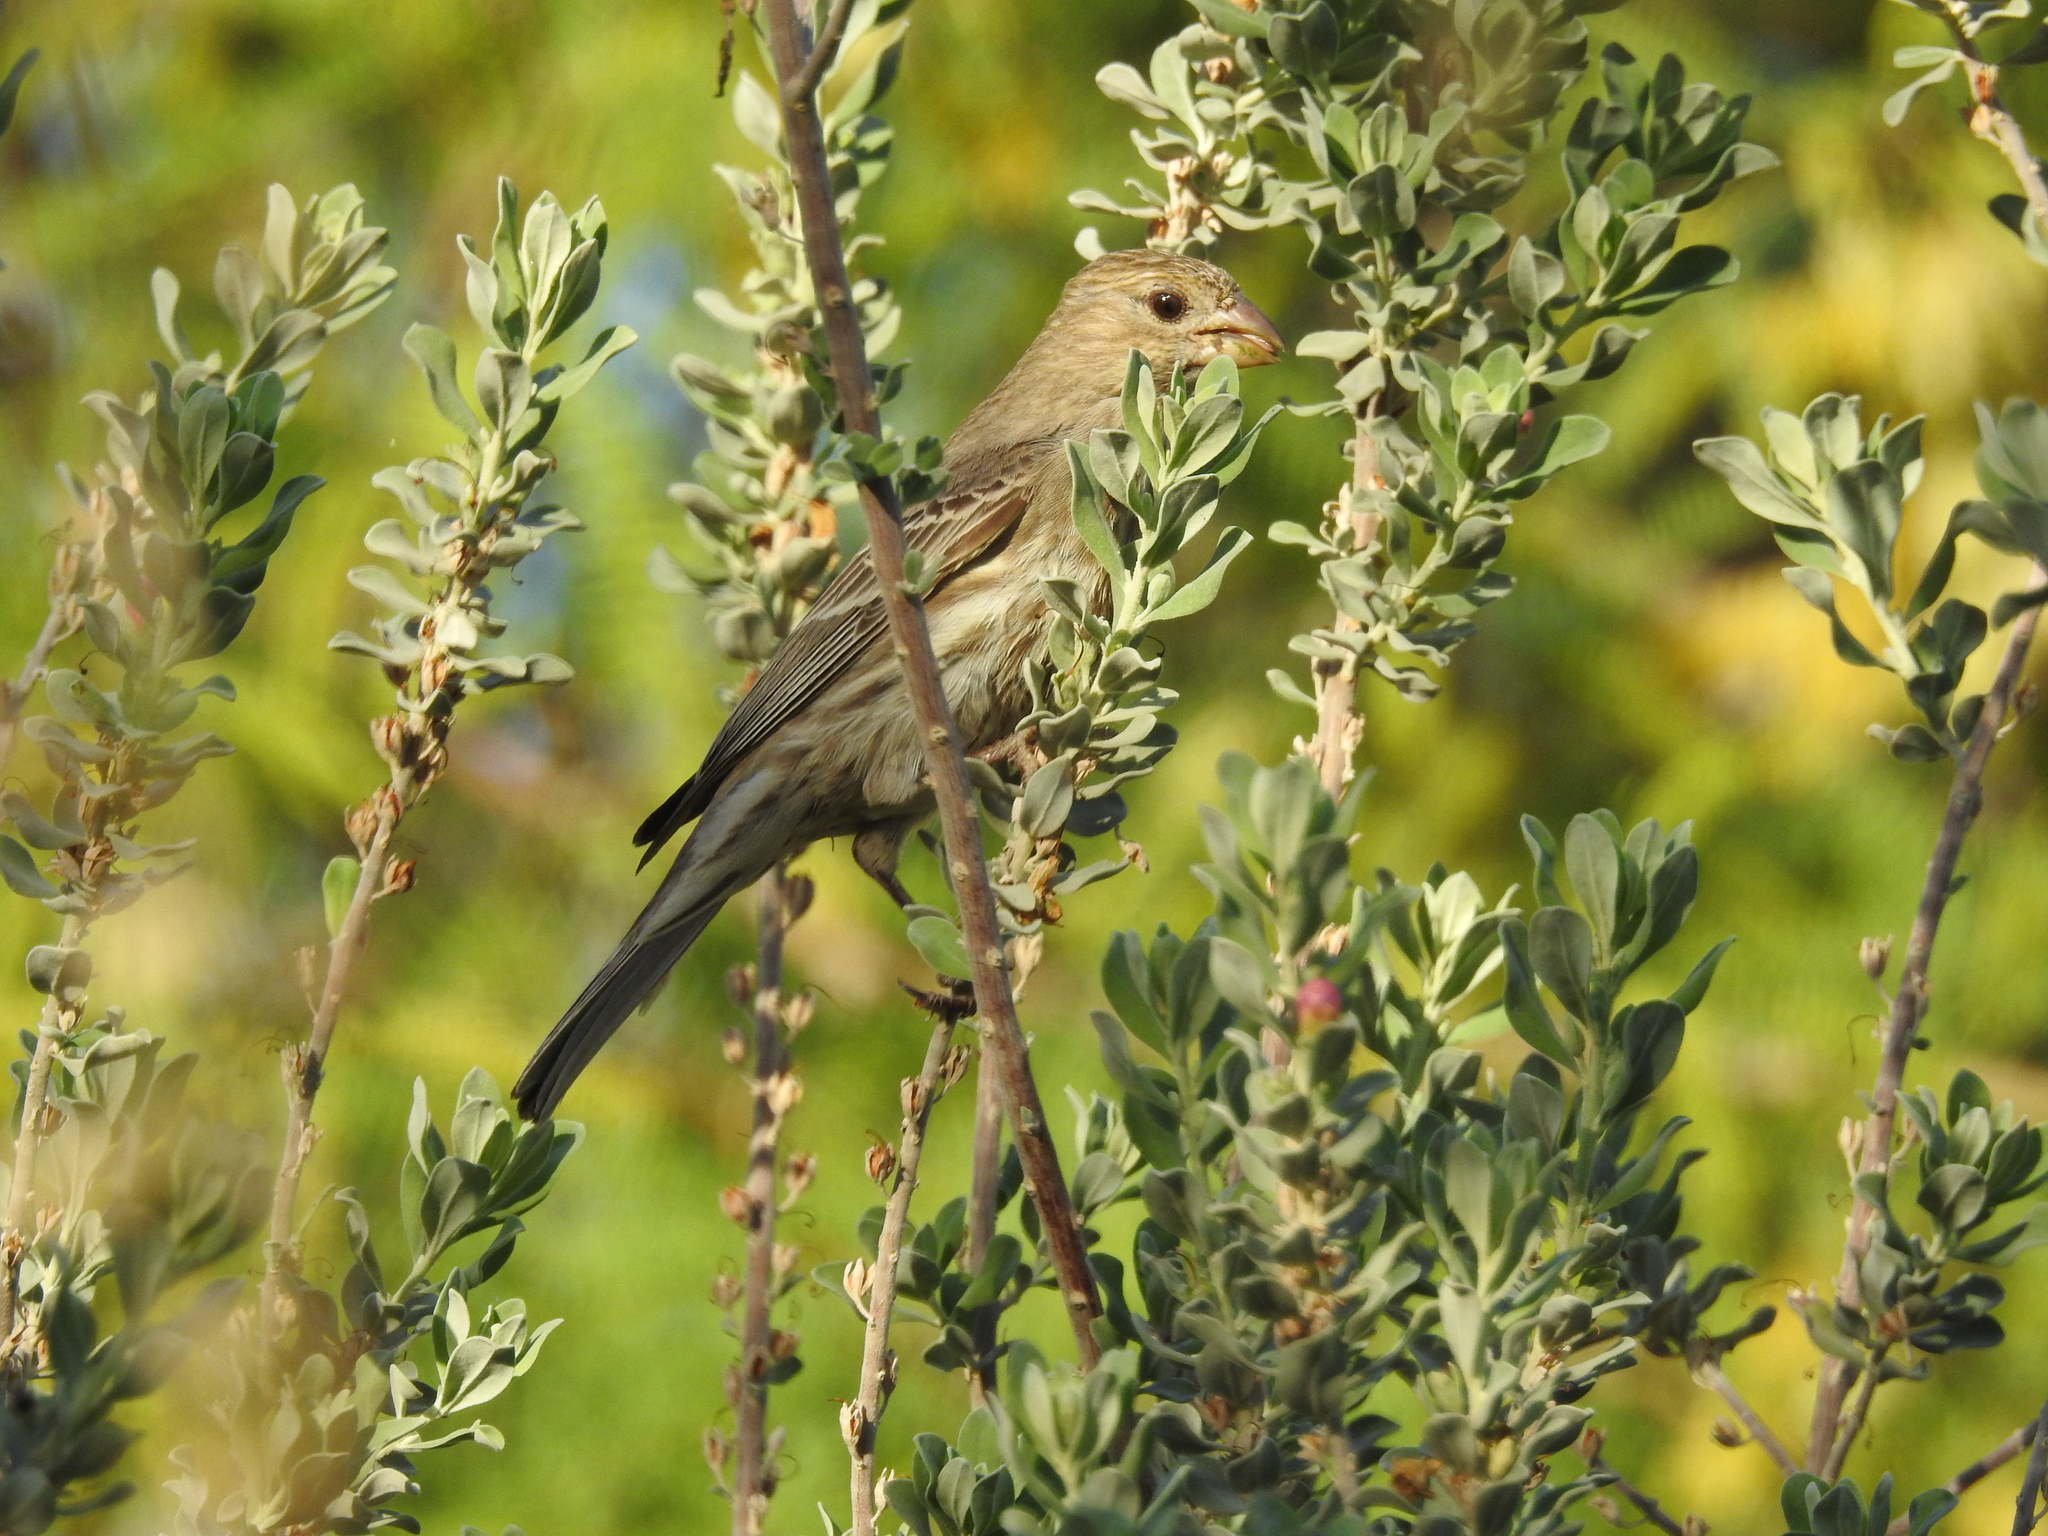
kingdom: Animalia
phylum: Chordata
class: Aves
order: Passeriformes
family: Fringillidae
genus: Haemorhous
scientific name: Haemorhous mexicanus
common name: House finch
